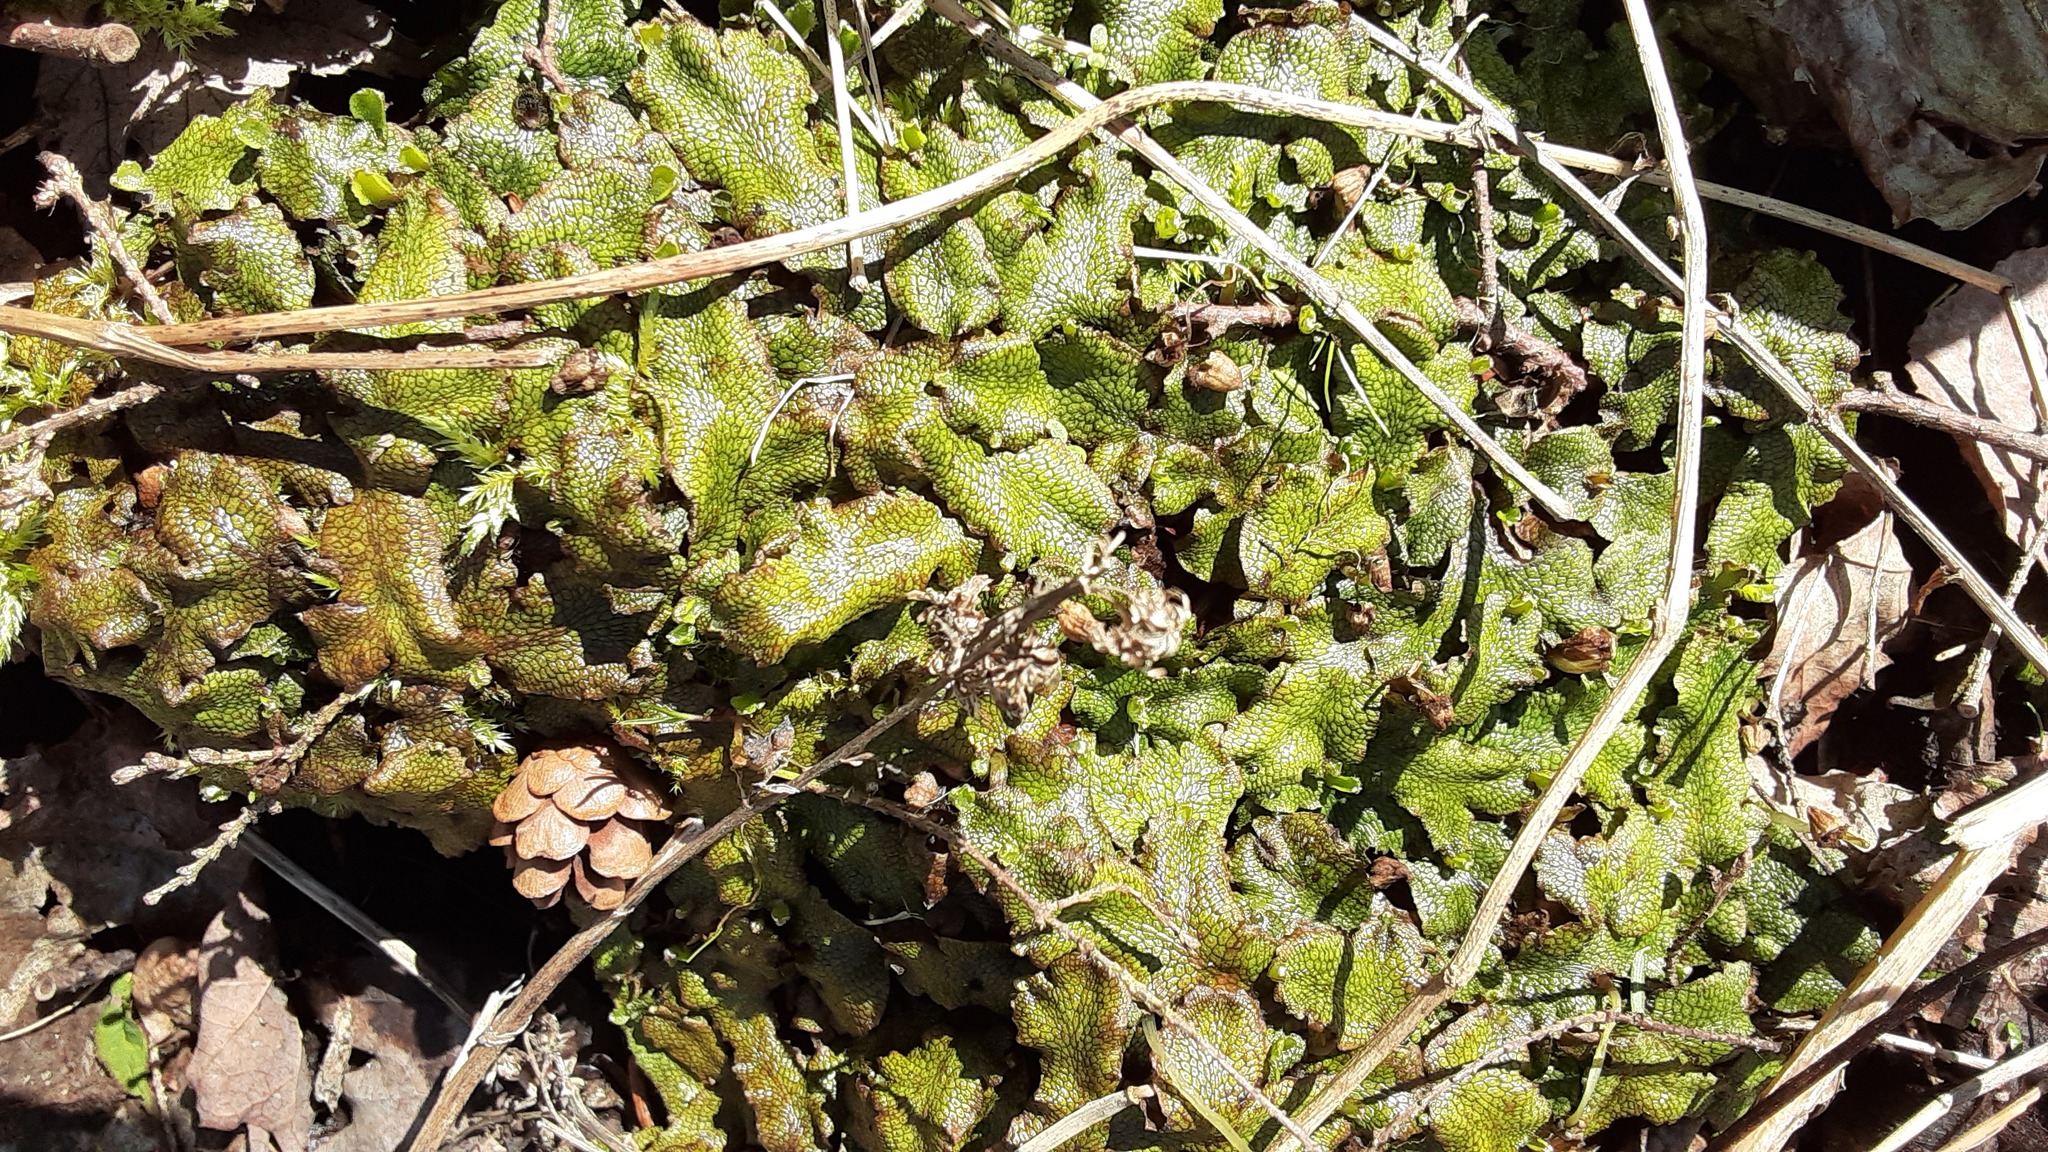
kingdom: Plantae
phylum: Marchantiophyta
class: Marchantiopsida
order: Marchantiales
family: Conocephalaceae
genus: Conocephalum
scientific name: Conocephalum salebrosum
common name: Cat-tongue liverwort
